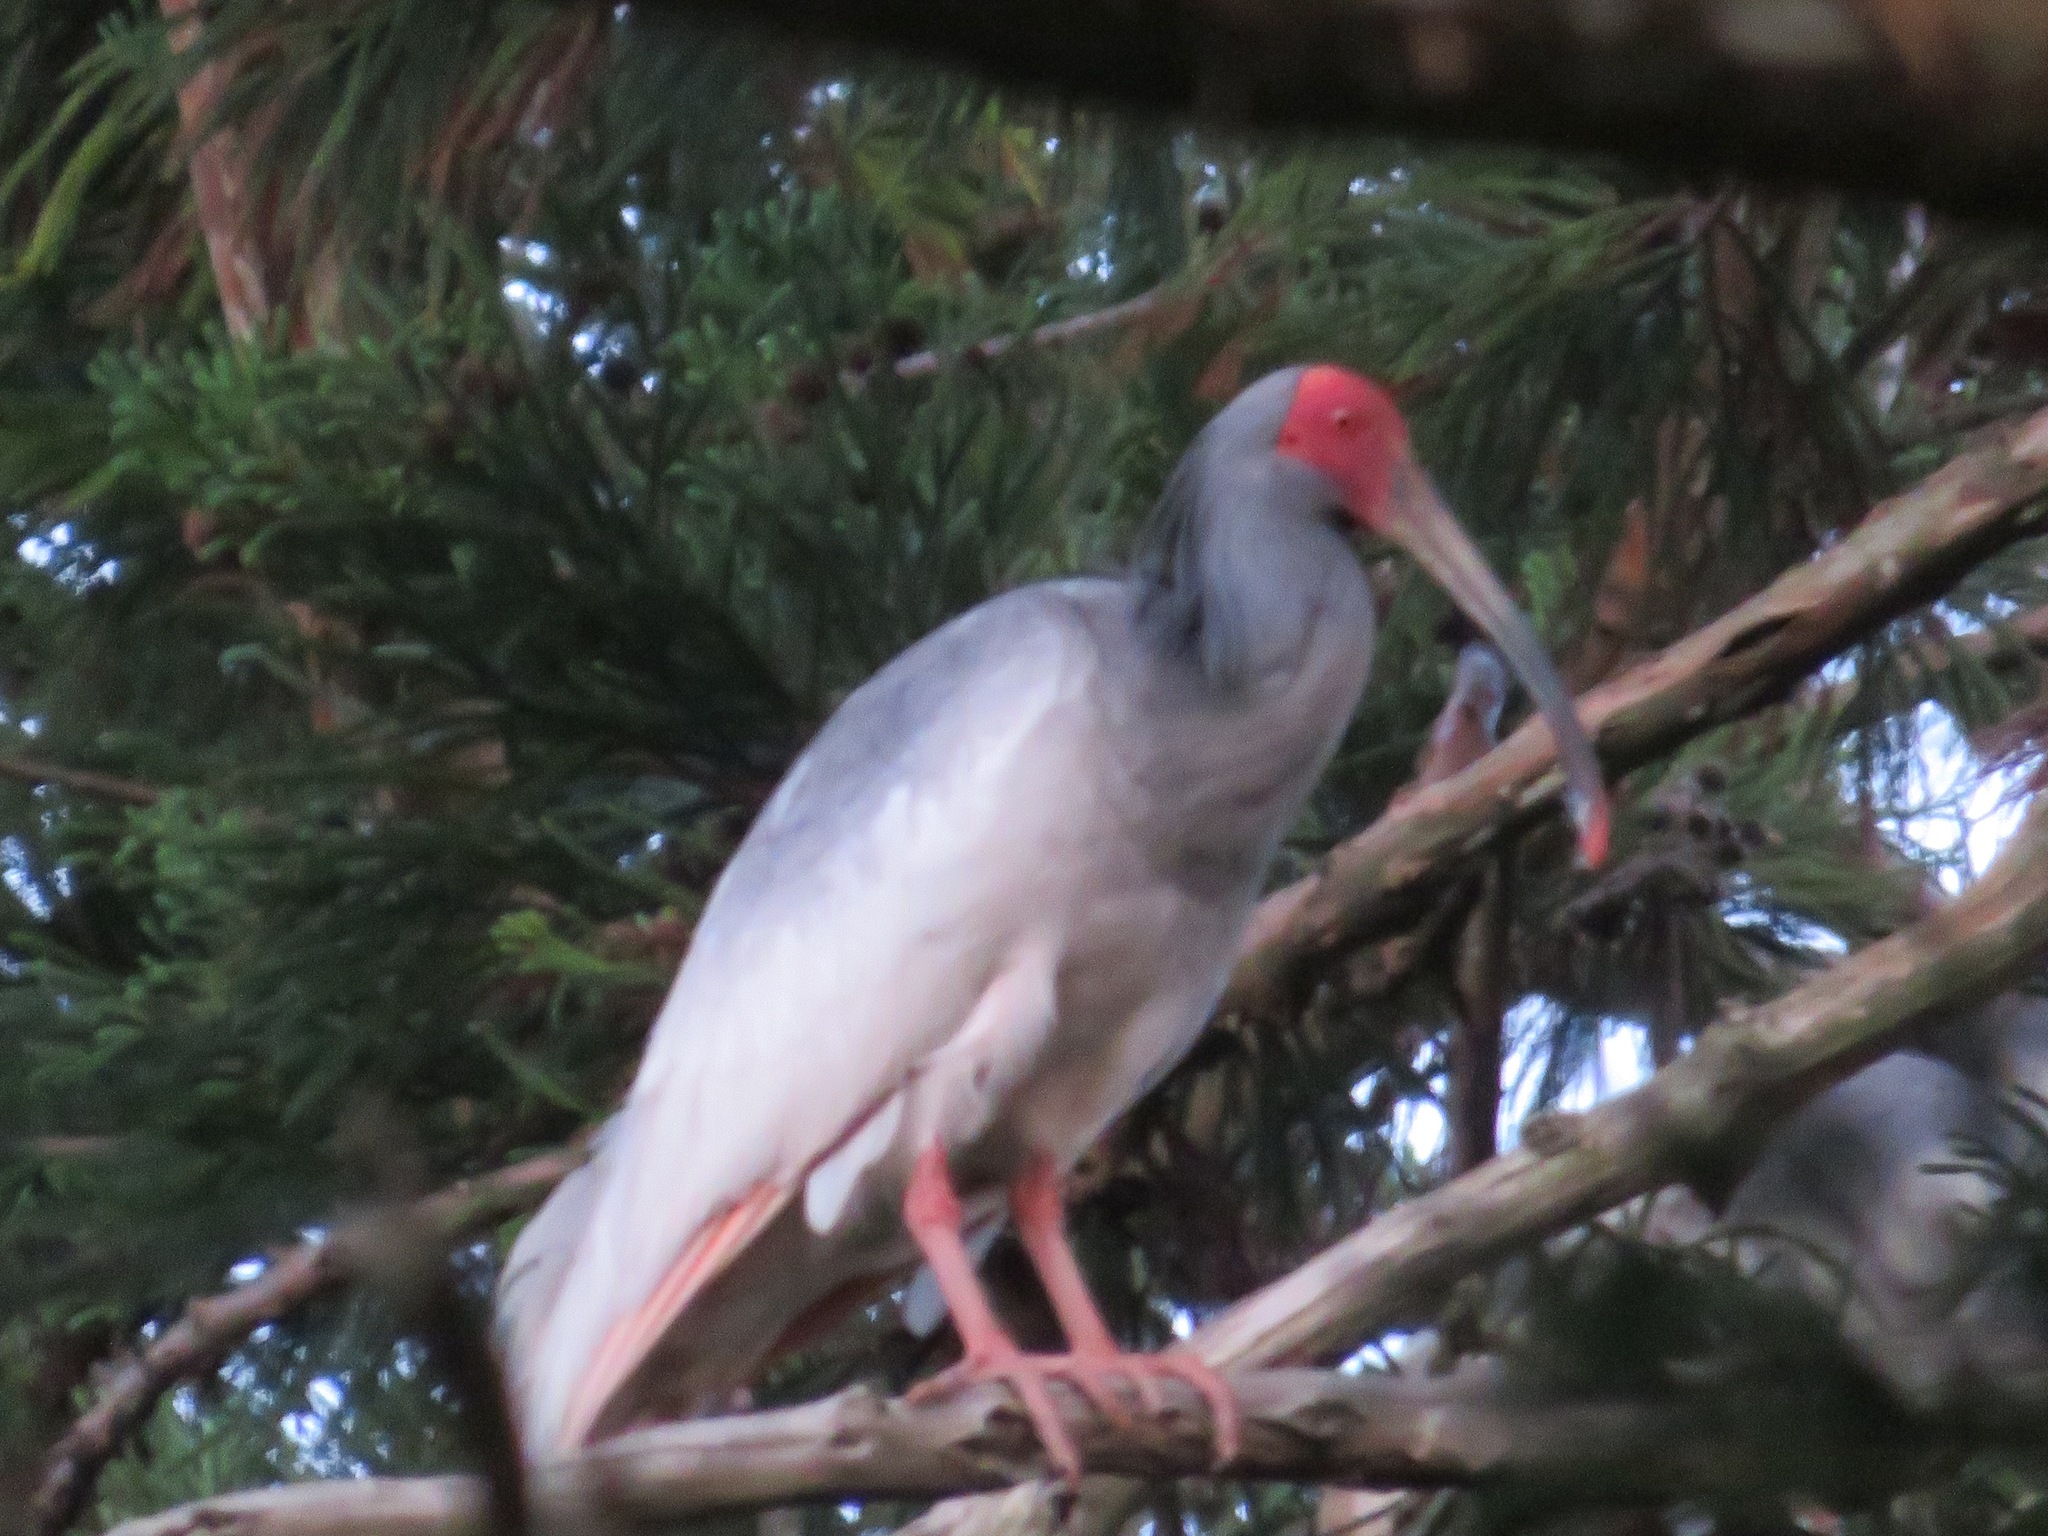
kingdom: Animalia
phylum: Chordata
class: Aves
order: Pelecaniformes
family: Threskiornithidae
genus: Nipponia
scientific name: Nipponia nippon
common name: Crested ibis
